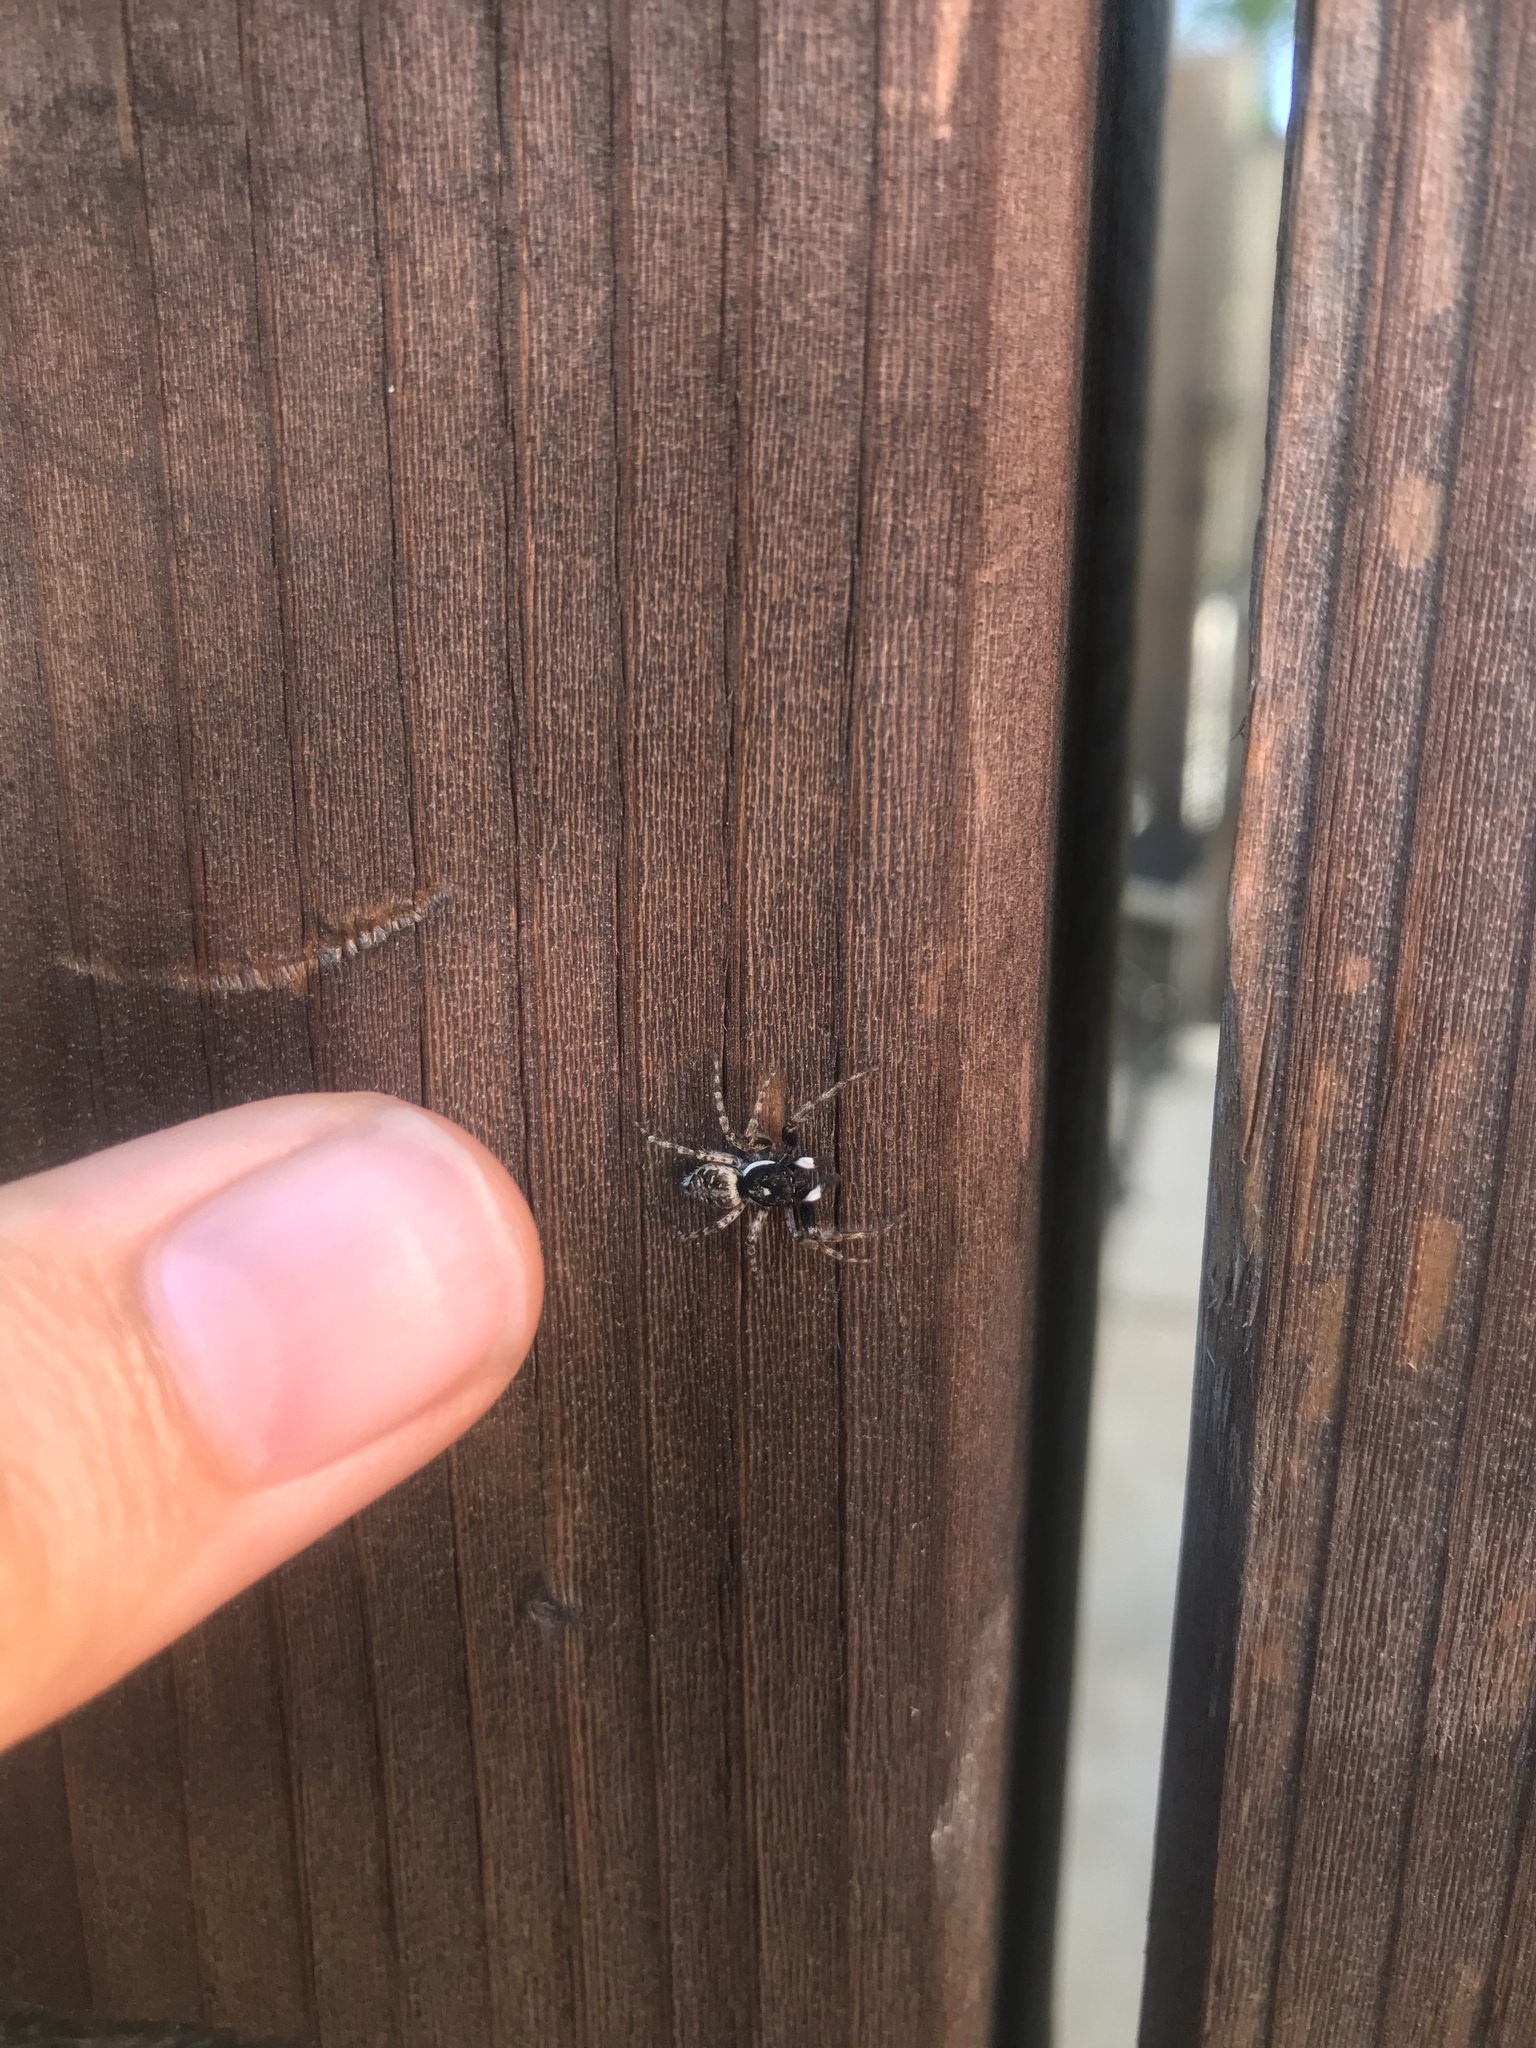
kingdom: Animalia
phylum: Arthropoda
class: Arachnida
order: Araneae
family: Salticidae
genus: Menemerus
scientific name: Menemerus semilimbatus
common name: Jumping spider
